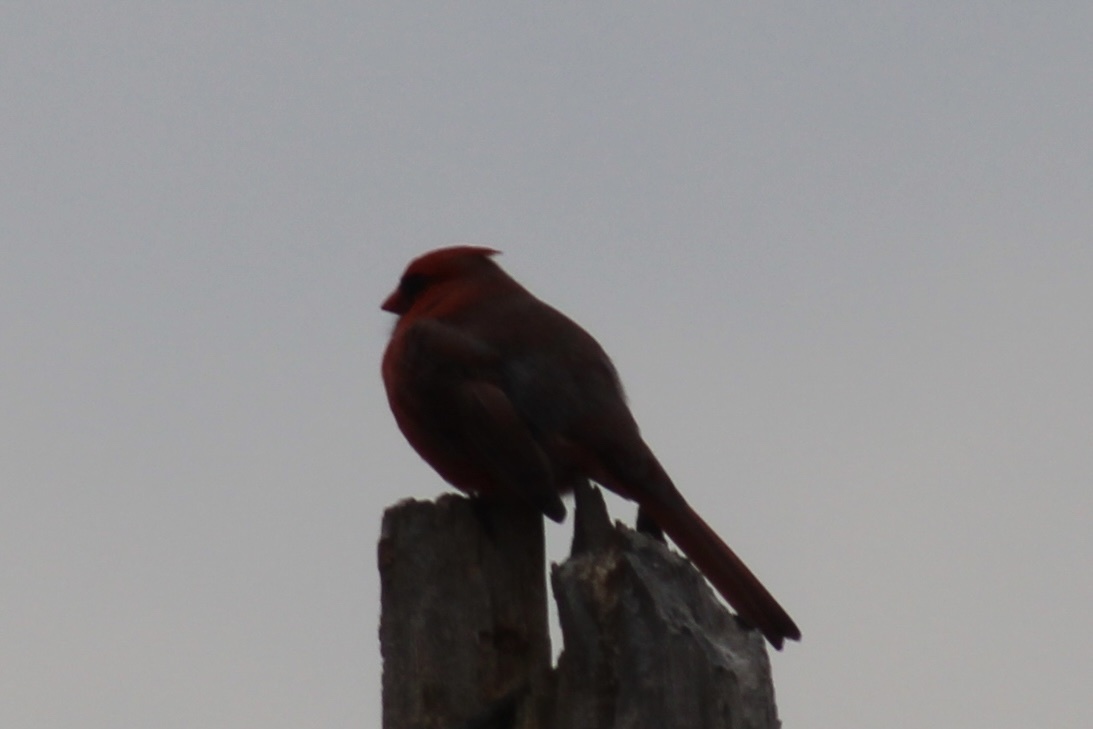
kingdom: Animalia
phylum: Chordata
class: Aves
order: Passeriformes
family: Cardinalidae
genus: Cardinalis
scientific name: Cardinalis cardinalis
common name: Northern cardinal
